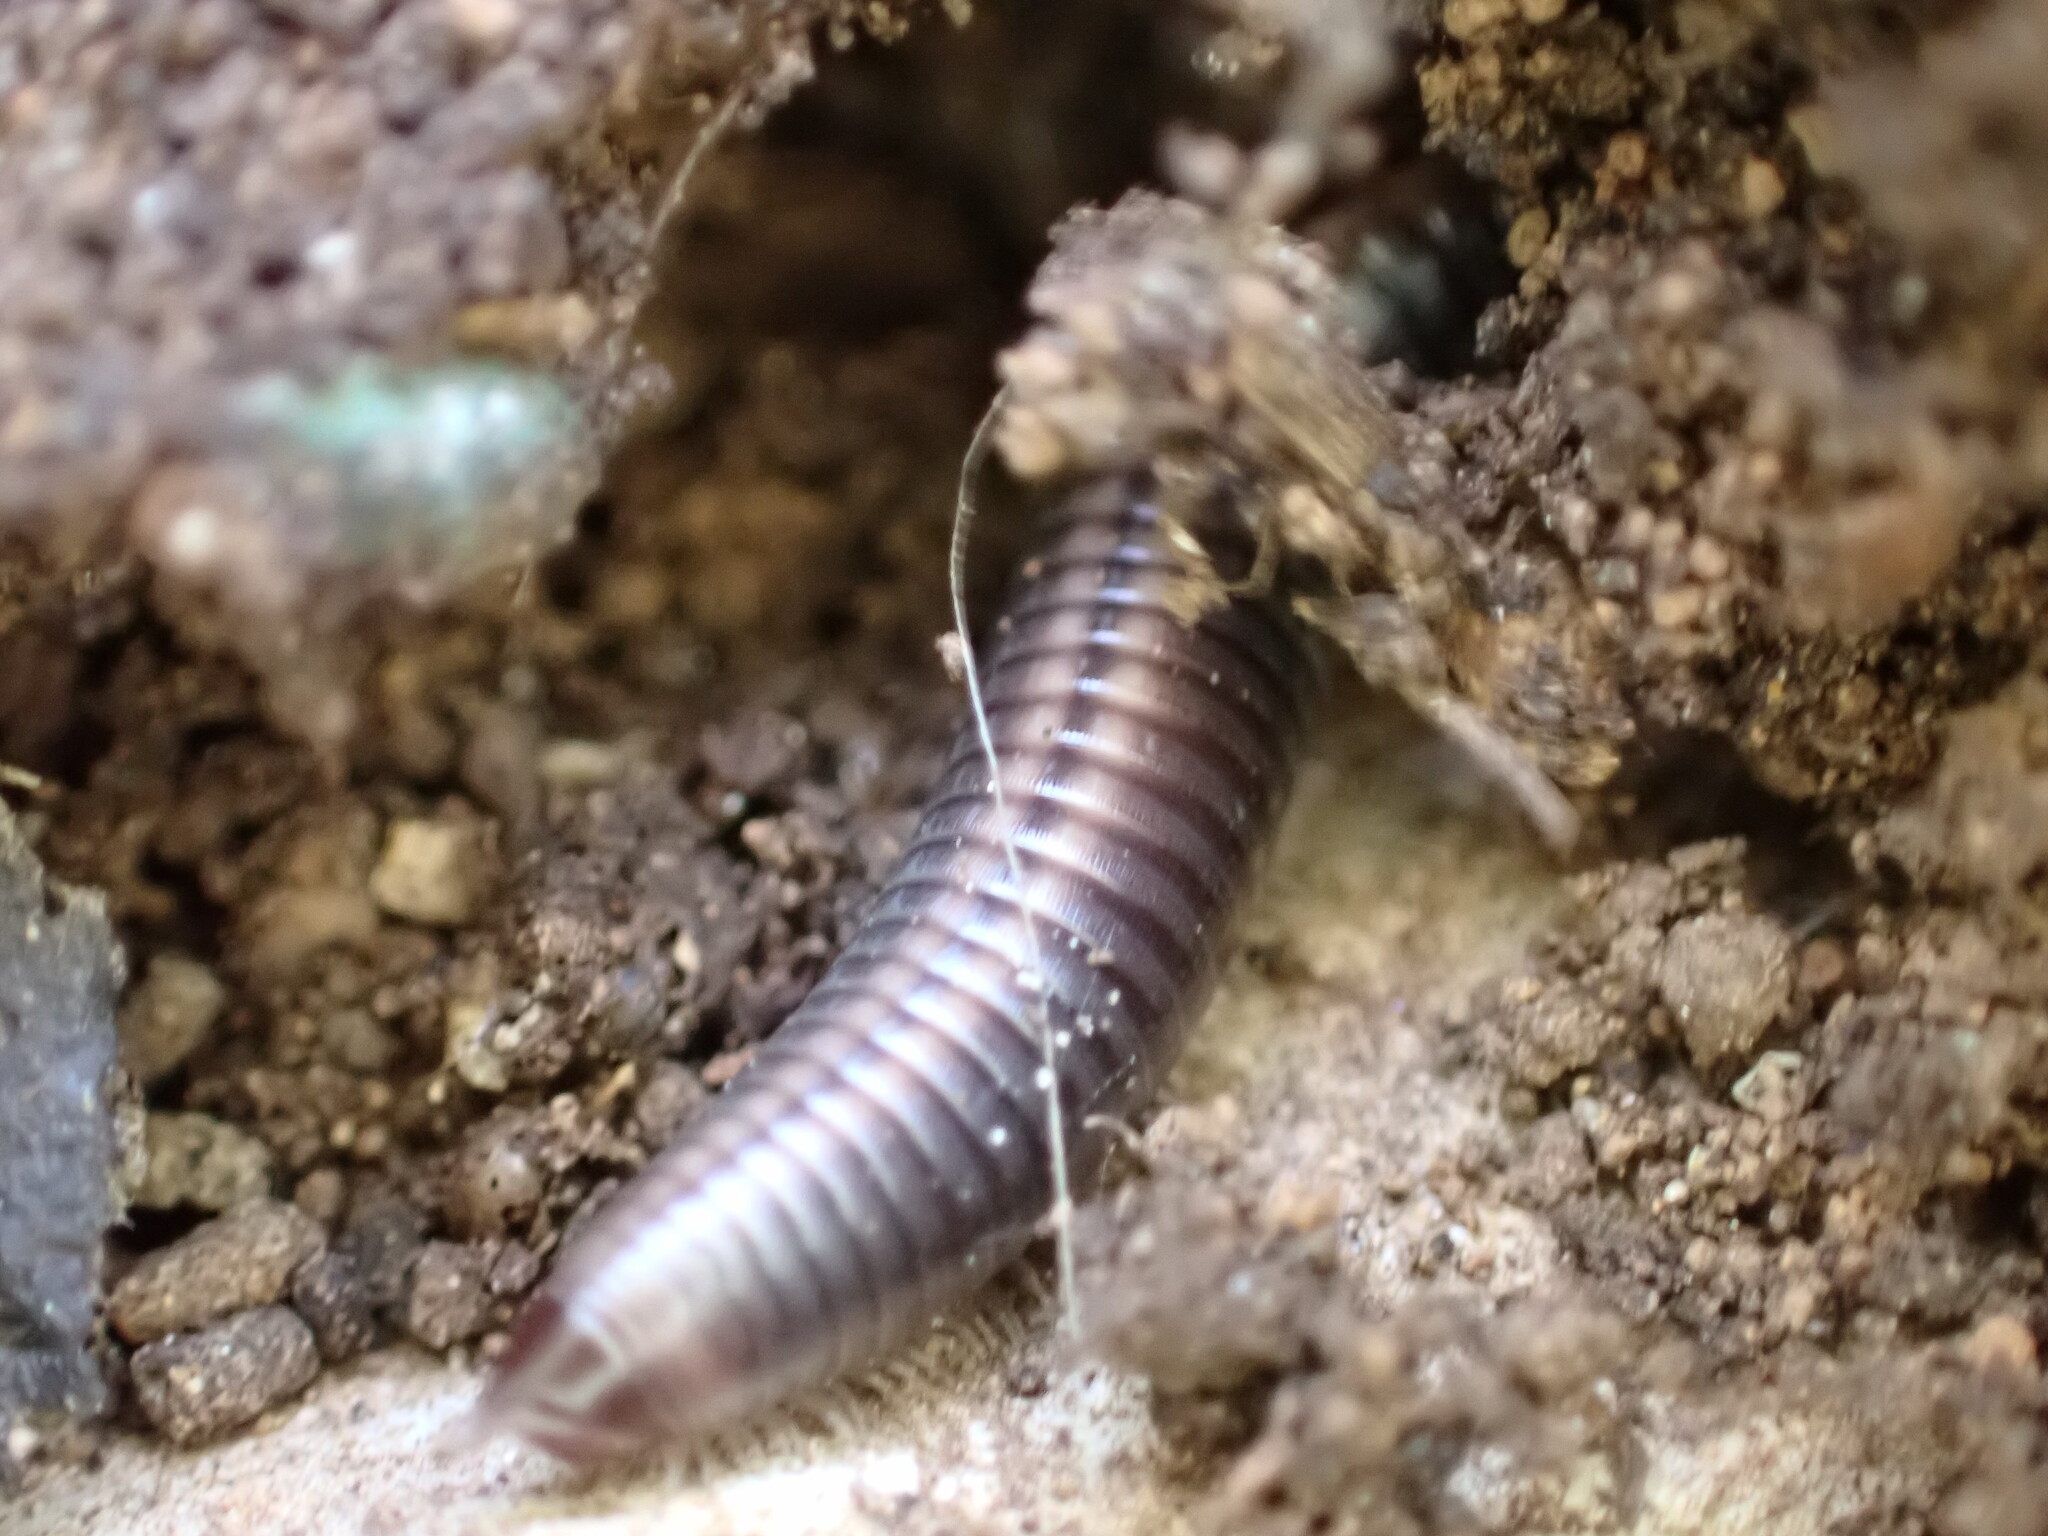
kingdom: Animalia
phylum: Arthropoda
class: Diplopoda
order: Julida
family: Julidae
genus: Ommatoiulus
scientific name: Ommatoiulus sabulosus
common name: Striped millipede
